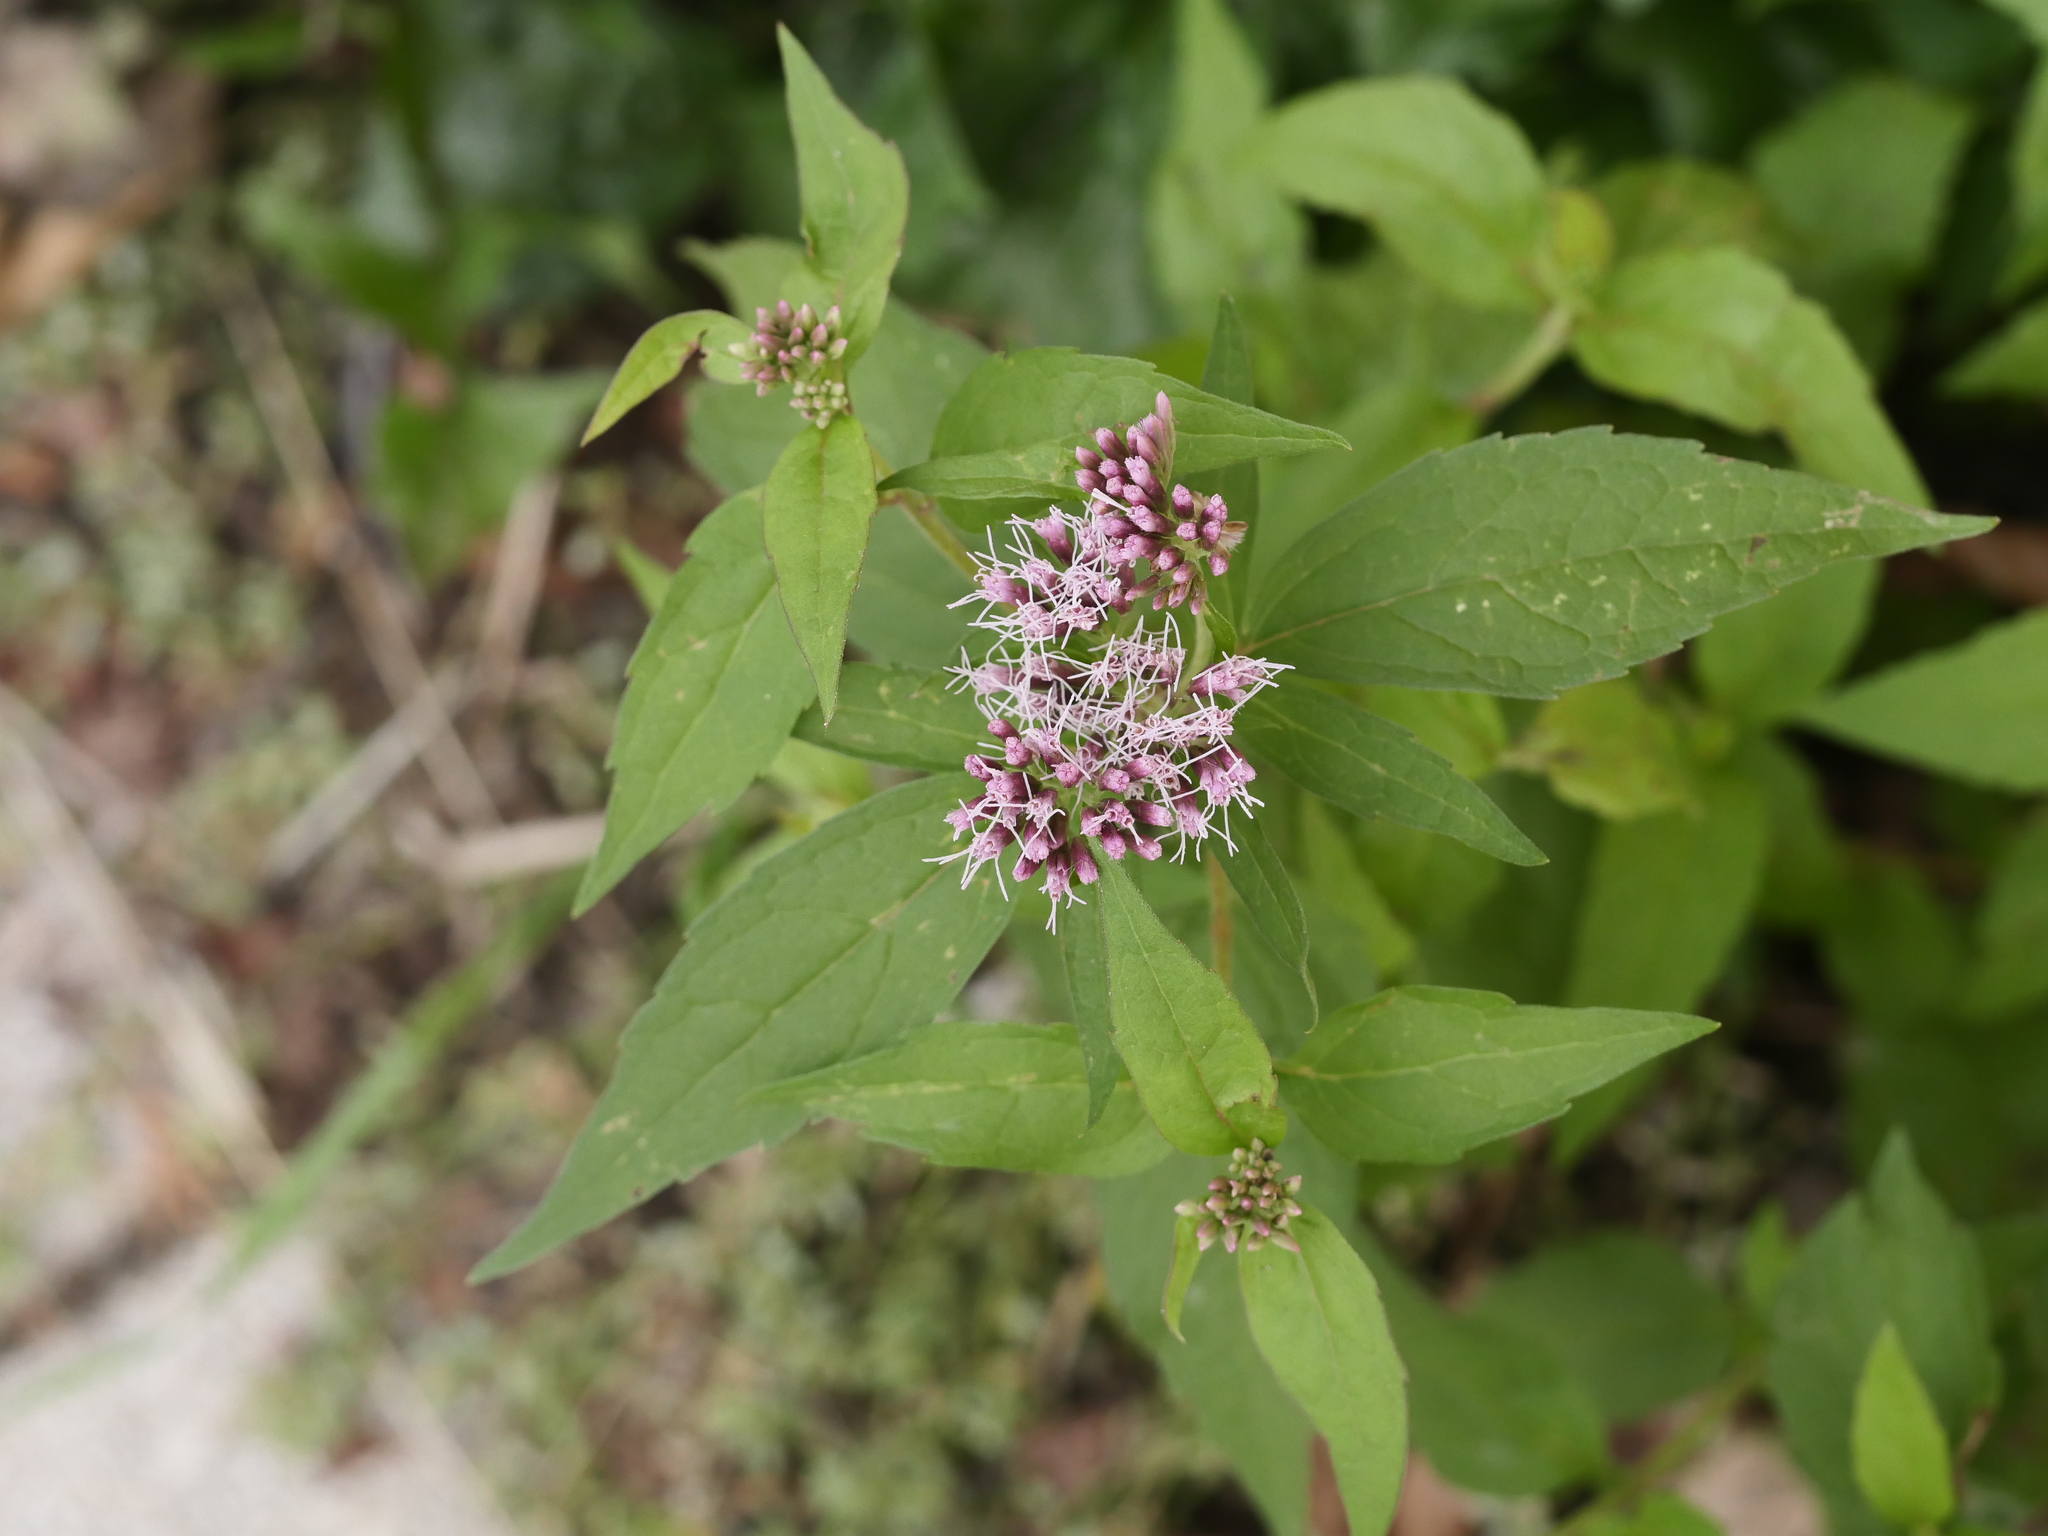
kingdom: Plantae
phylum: Tracheophyta
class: Magnoliopsida
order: Asterales
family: Asteraceae
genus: Eupatorium
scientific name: Eupatorium cannabinum
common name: Hemp-agrimony
